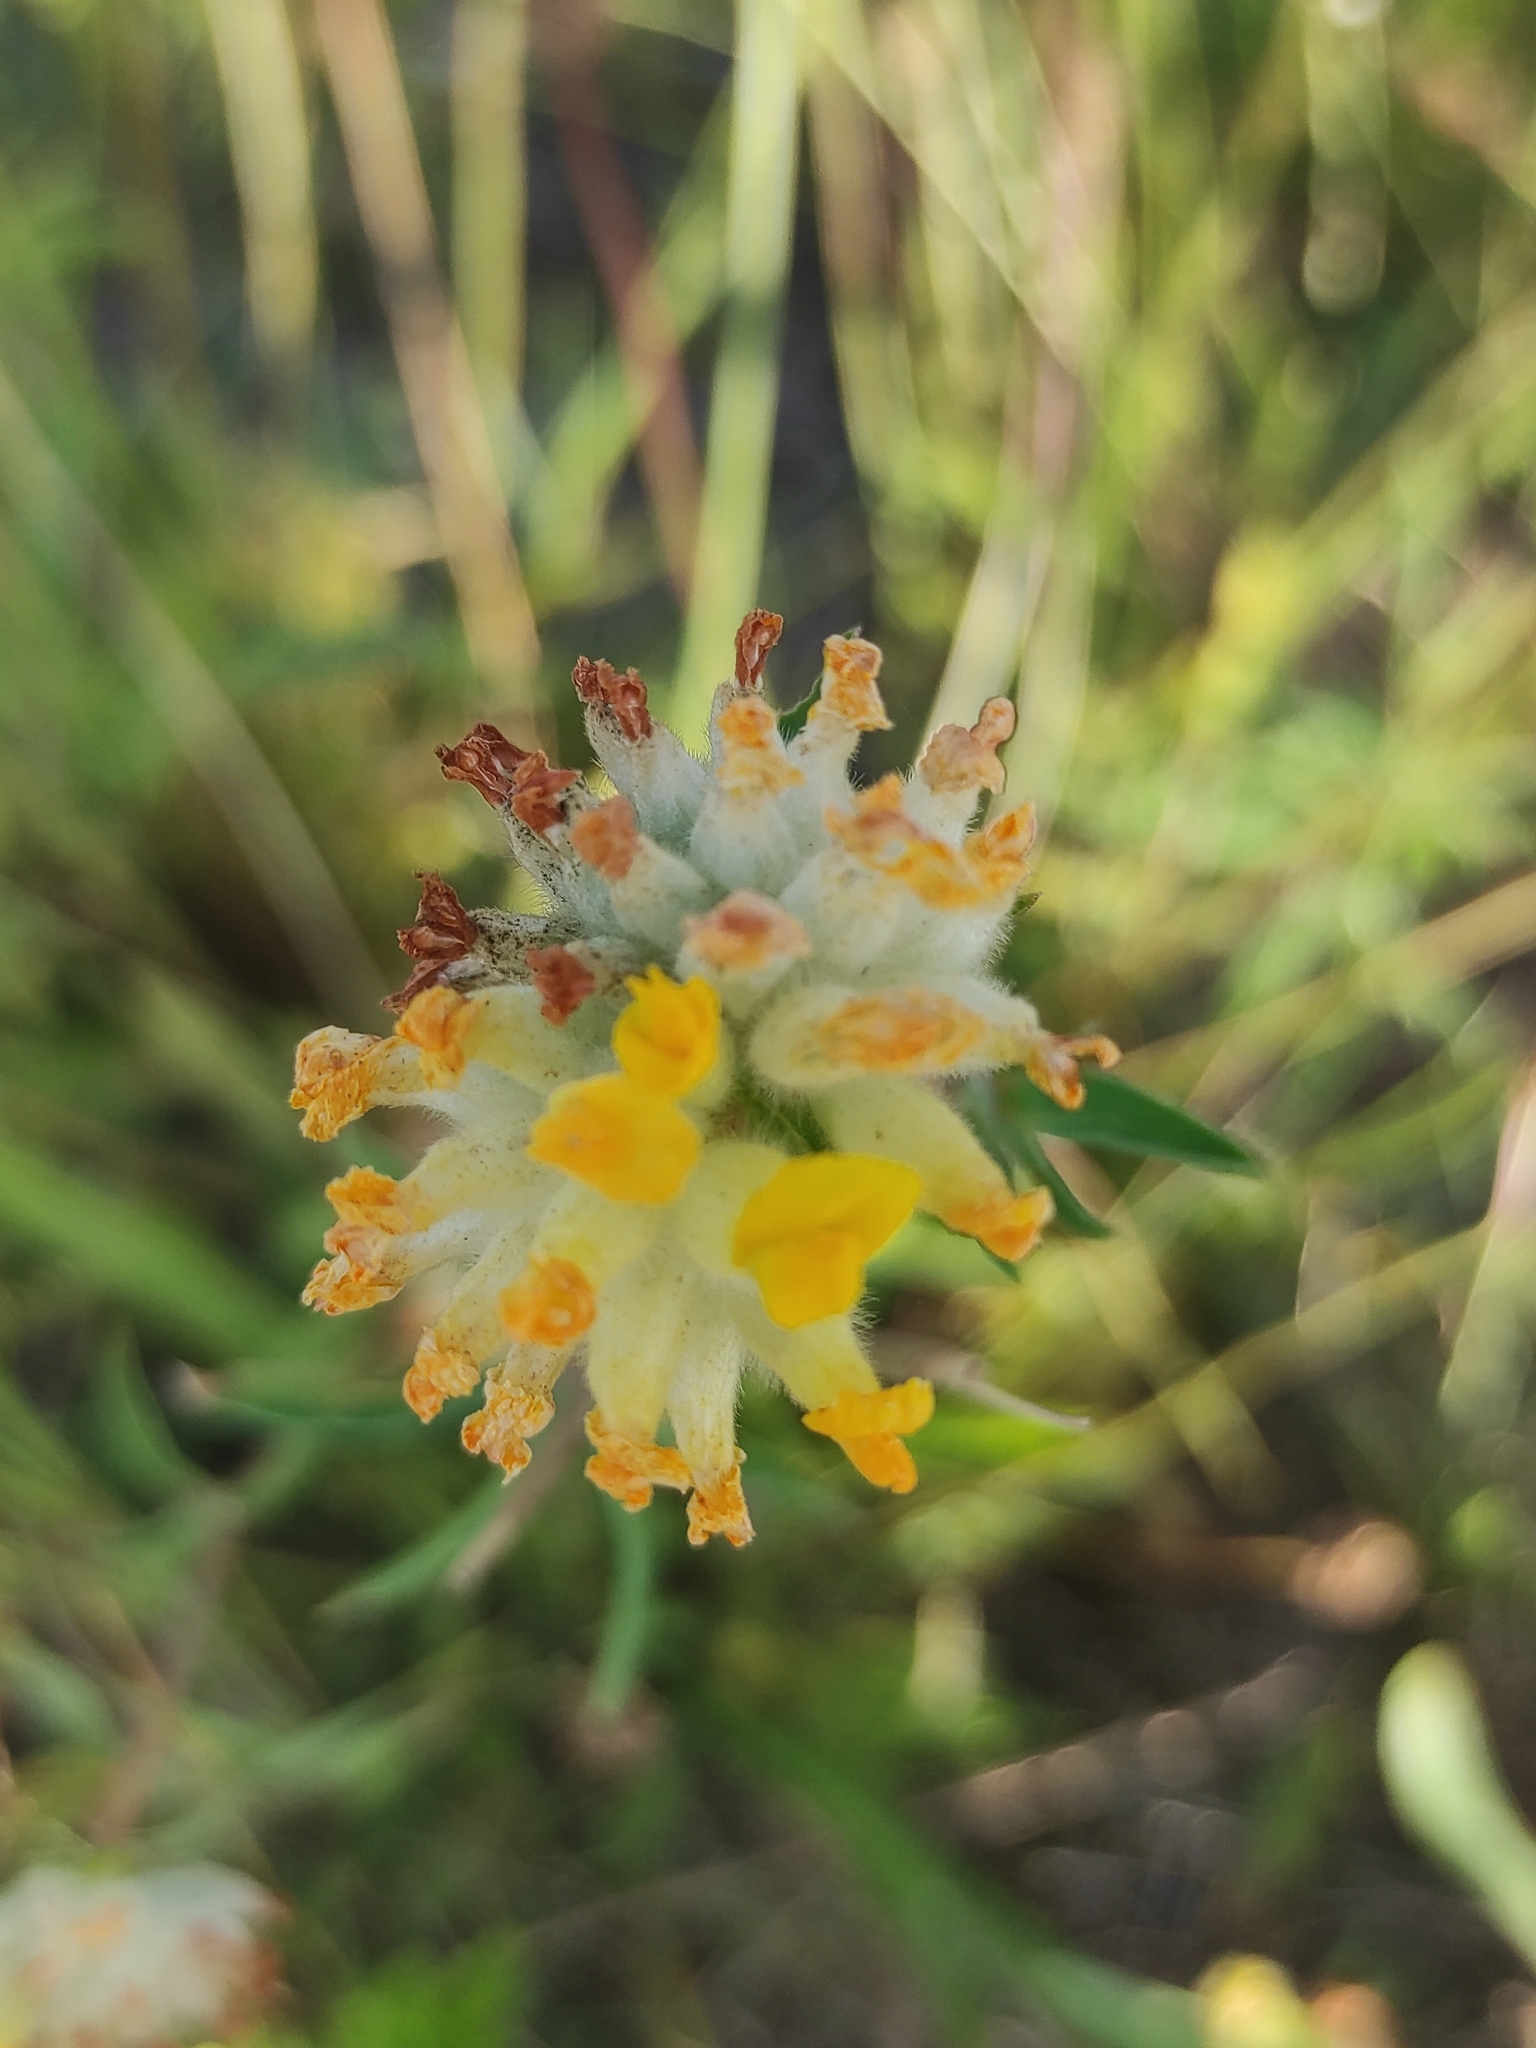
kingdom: Plantae
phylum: Tracheophyta
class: Magnoliopsida
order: Fabales
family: Fabaceae
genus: Anthyllis
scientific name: Anthyllis vulneraria
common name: Kidney vetch
